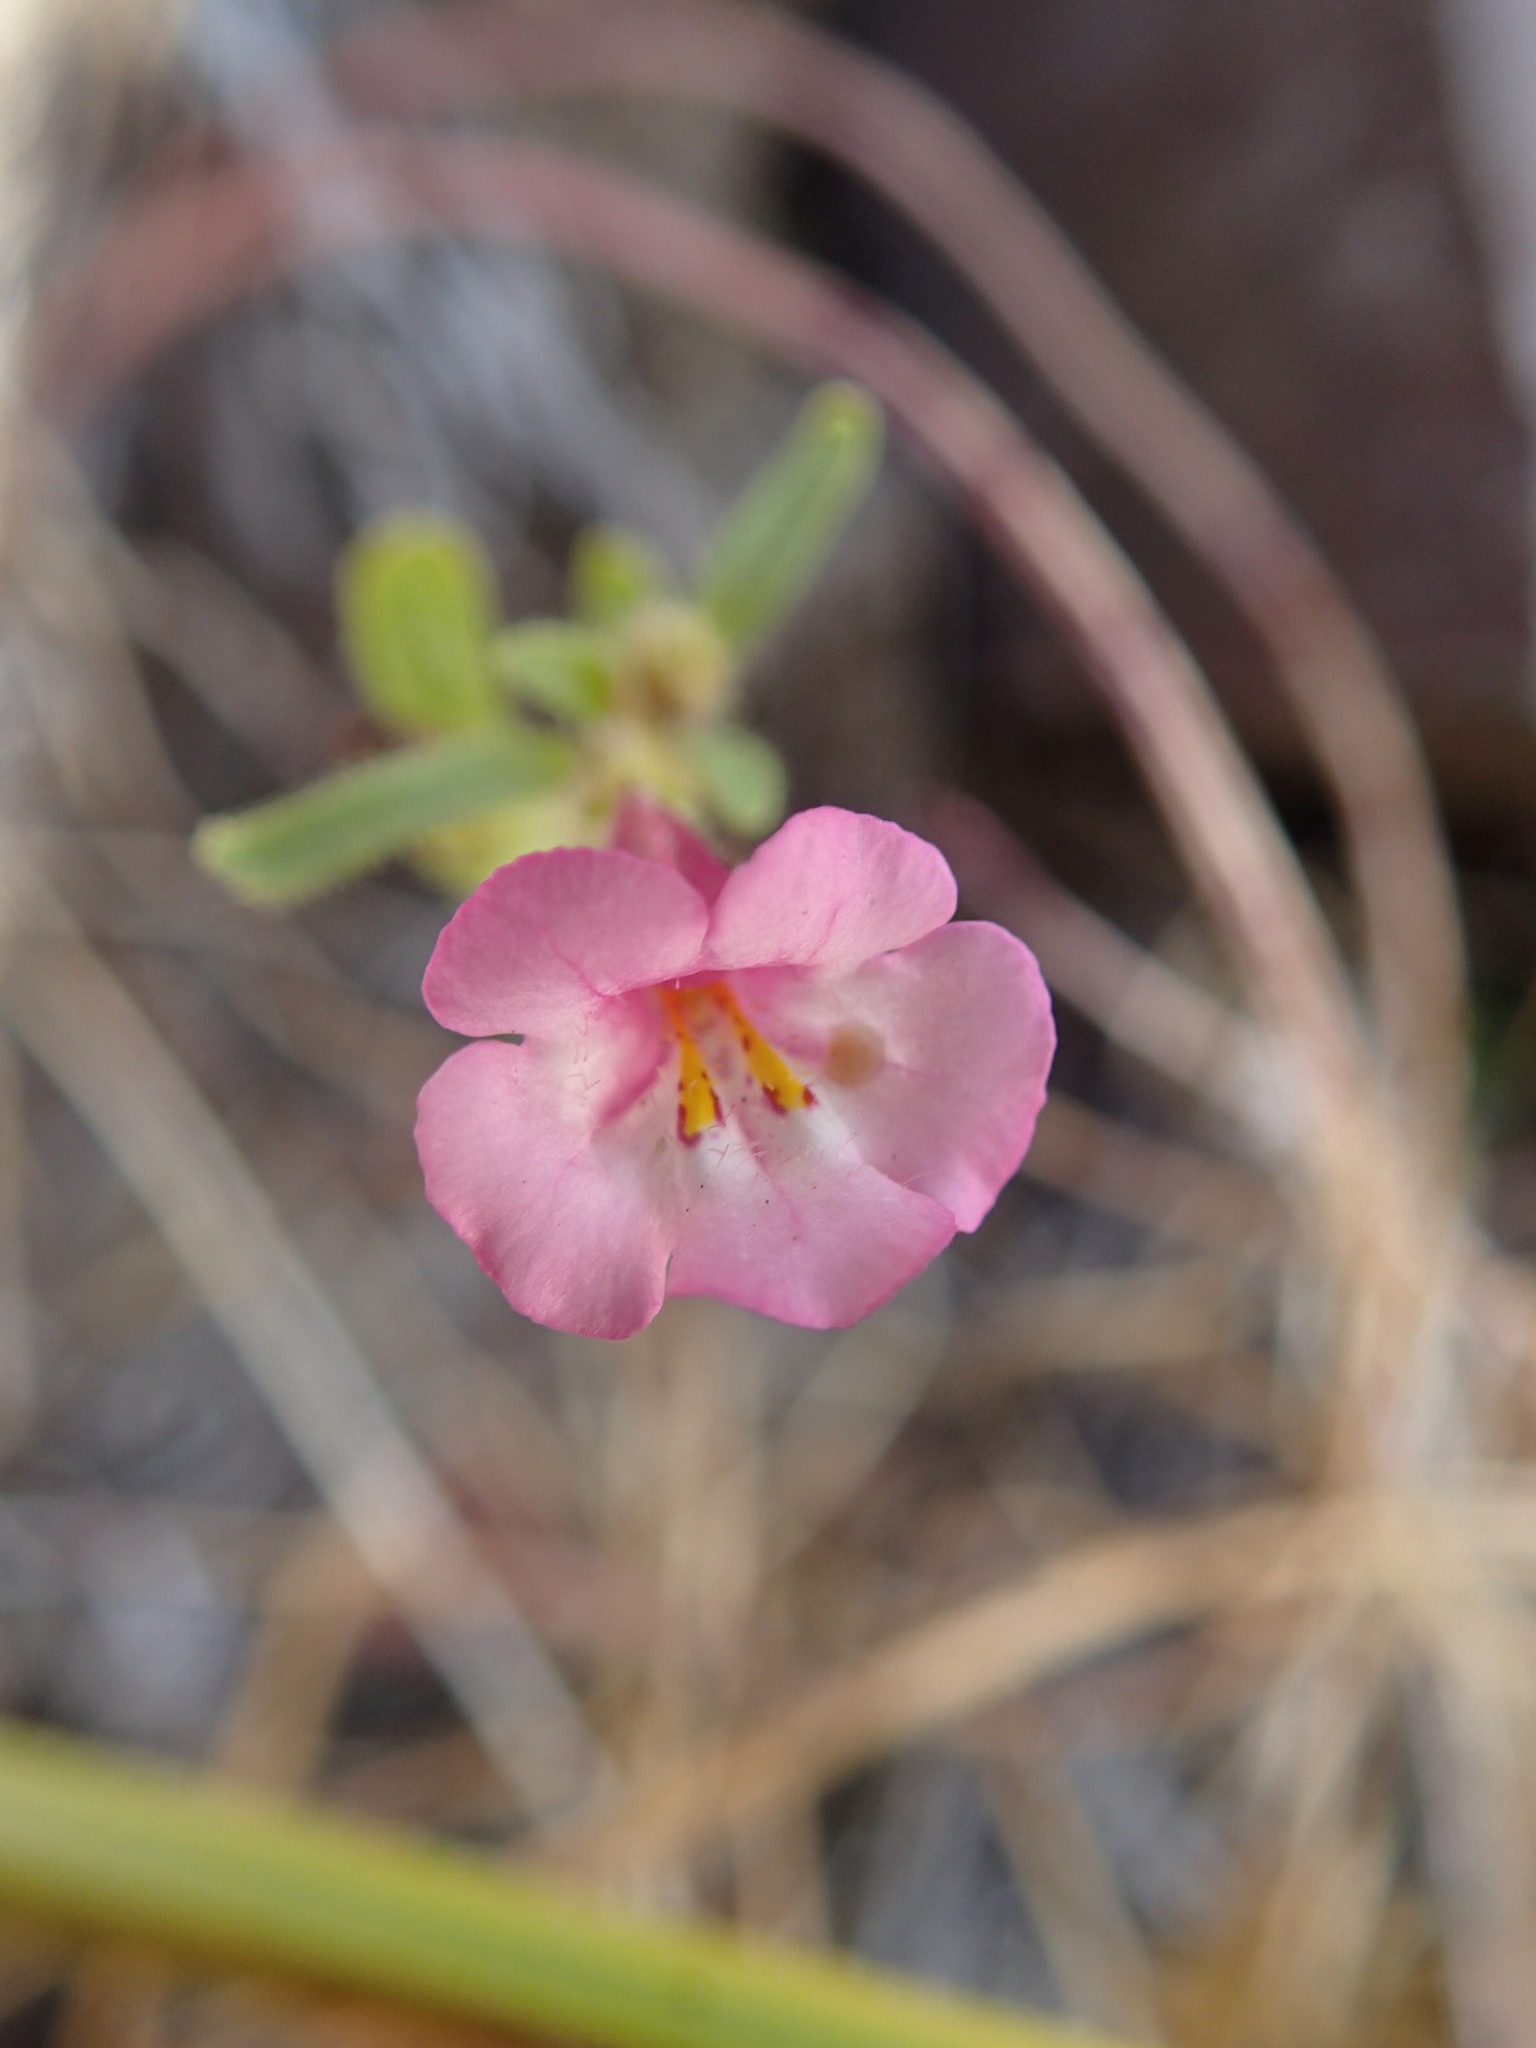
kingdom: Plantae
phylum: Tracheophyta
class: Magnoliopsida
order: Lamiales
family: Phrymaceae
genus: Diplacus
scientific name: Diplacus torreyi
